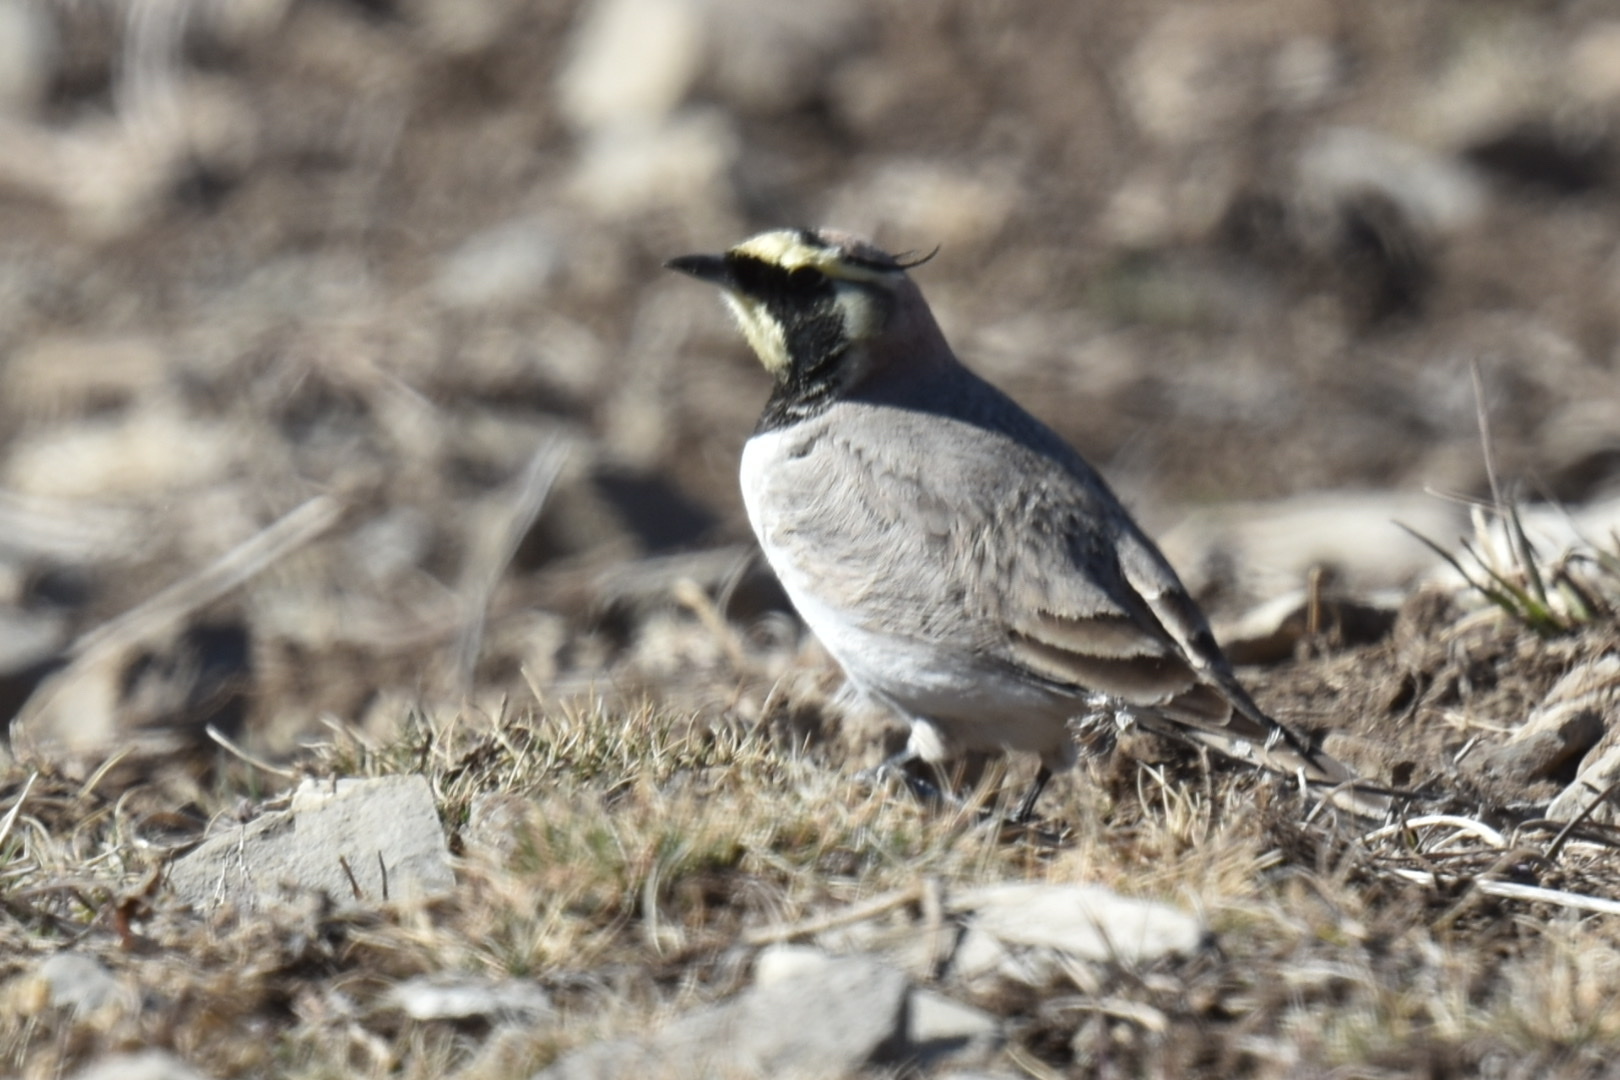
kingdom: Animalia
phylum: Chordata
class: Aves
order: Passeriformes
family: Alaudidae
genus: Eremophila
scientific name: Eremophila alpestris
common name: Horned lark
